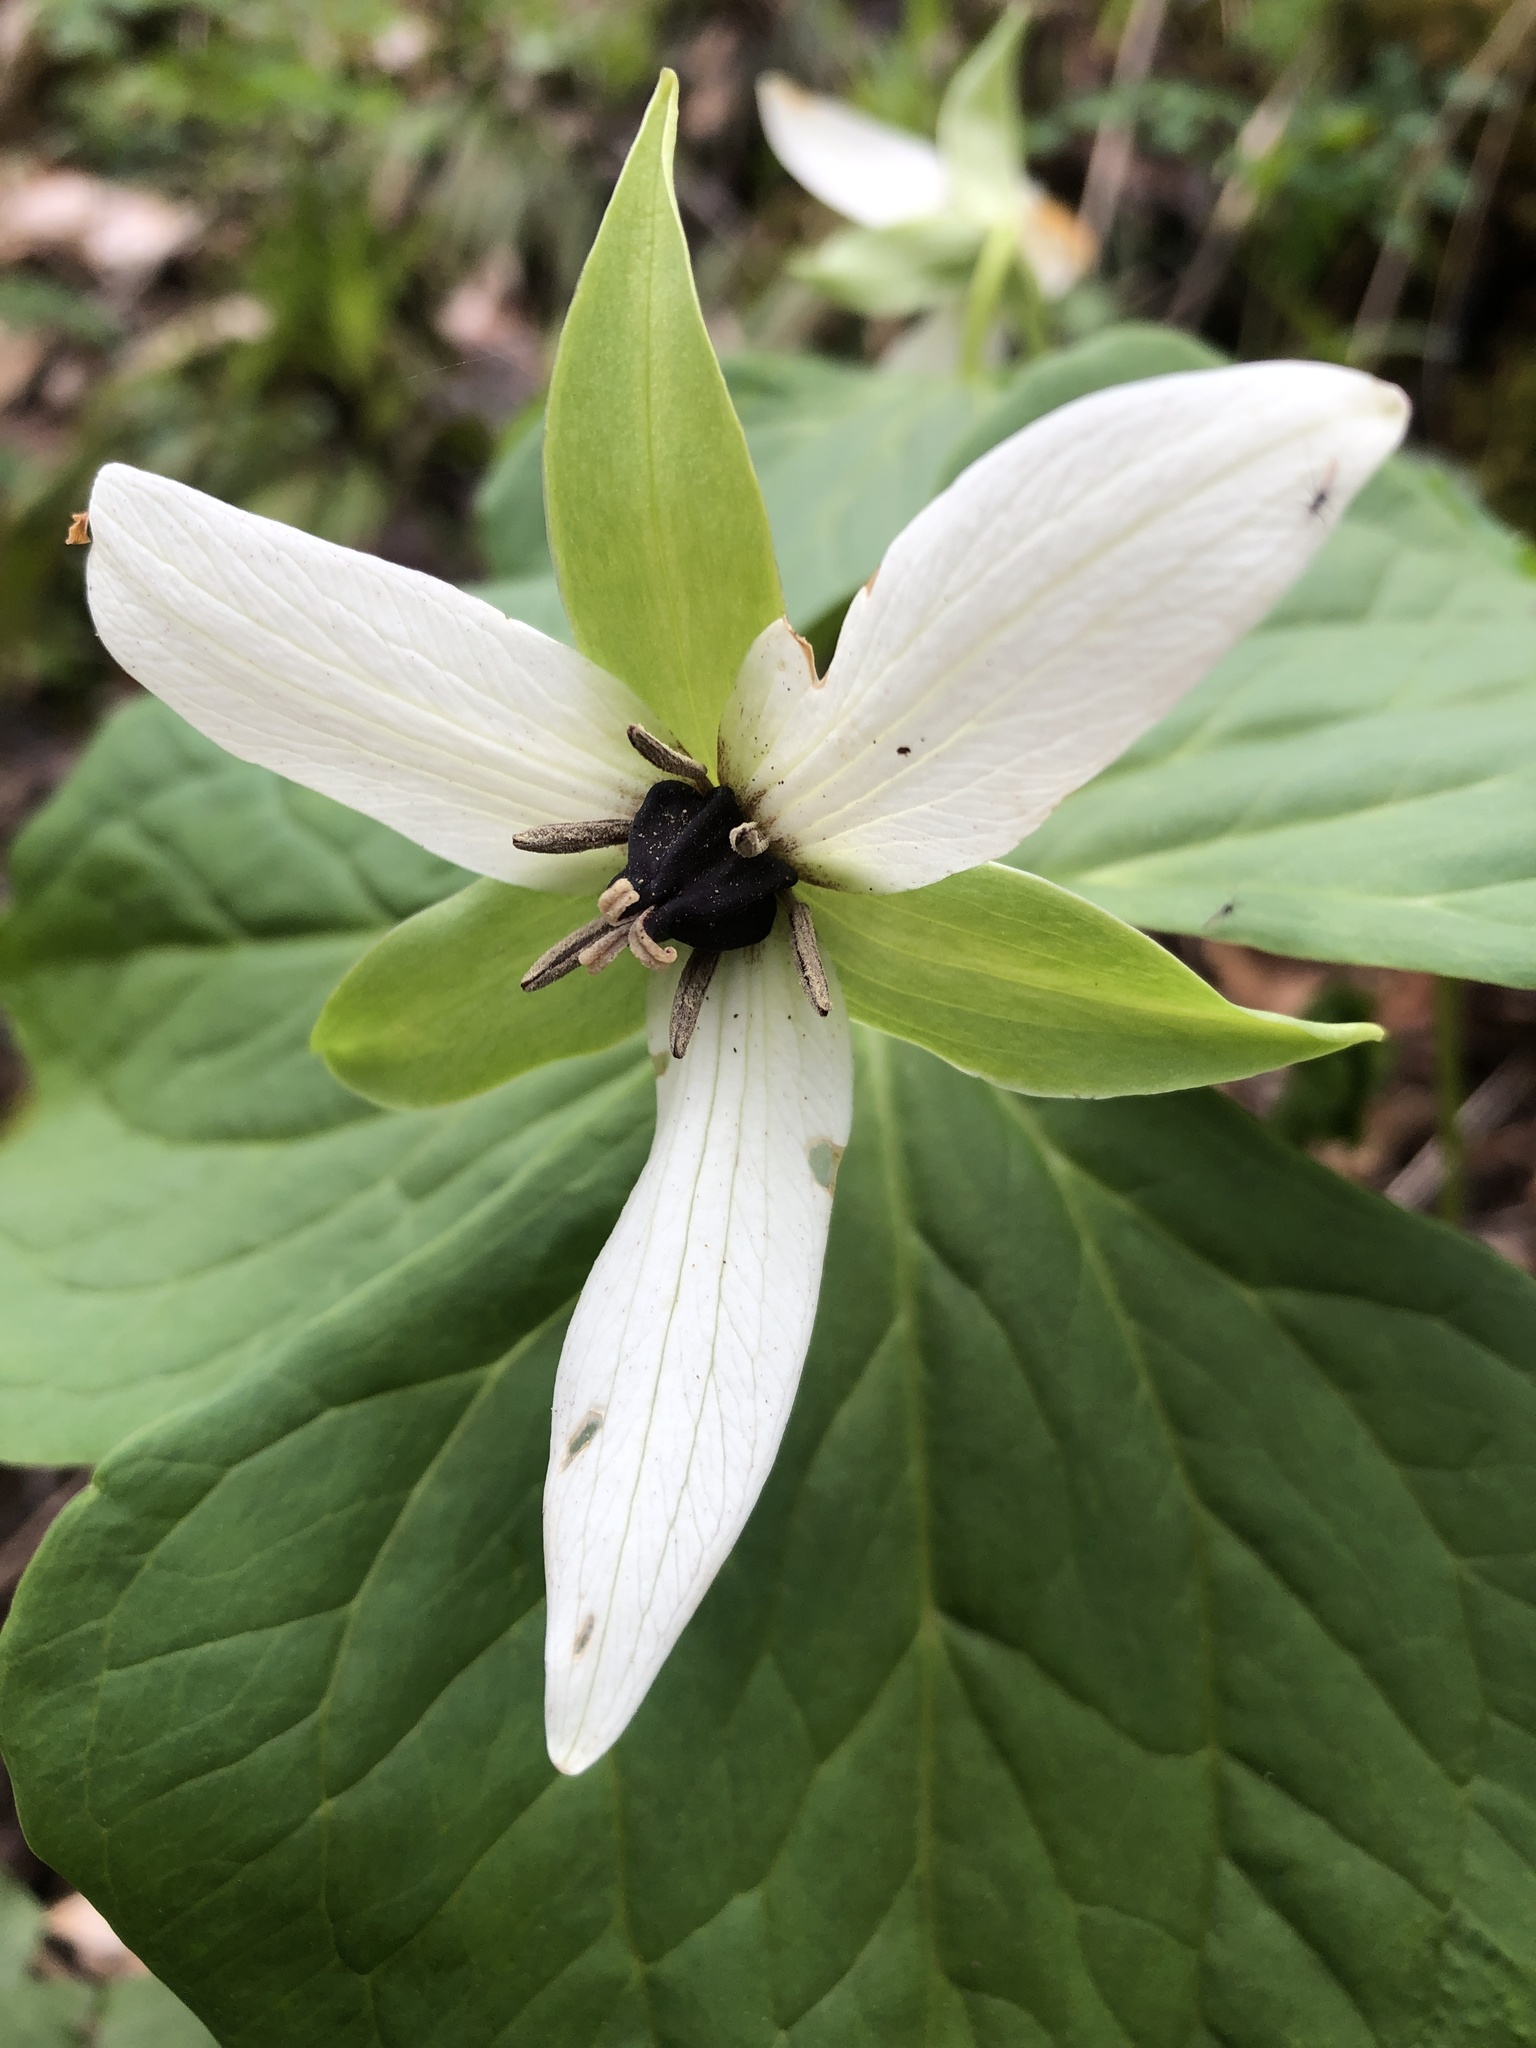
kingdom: Plantae
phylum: Tracheophyta
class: Liliopsida
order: Liliales
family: Melanthiaceae
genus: Trillium
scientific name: Trillium erectum
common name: Purple trillium
